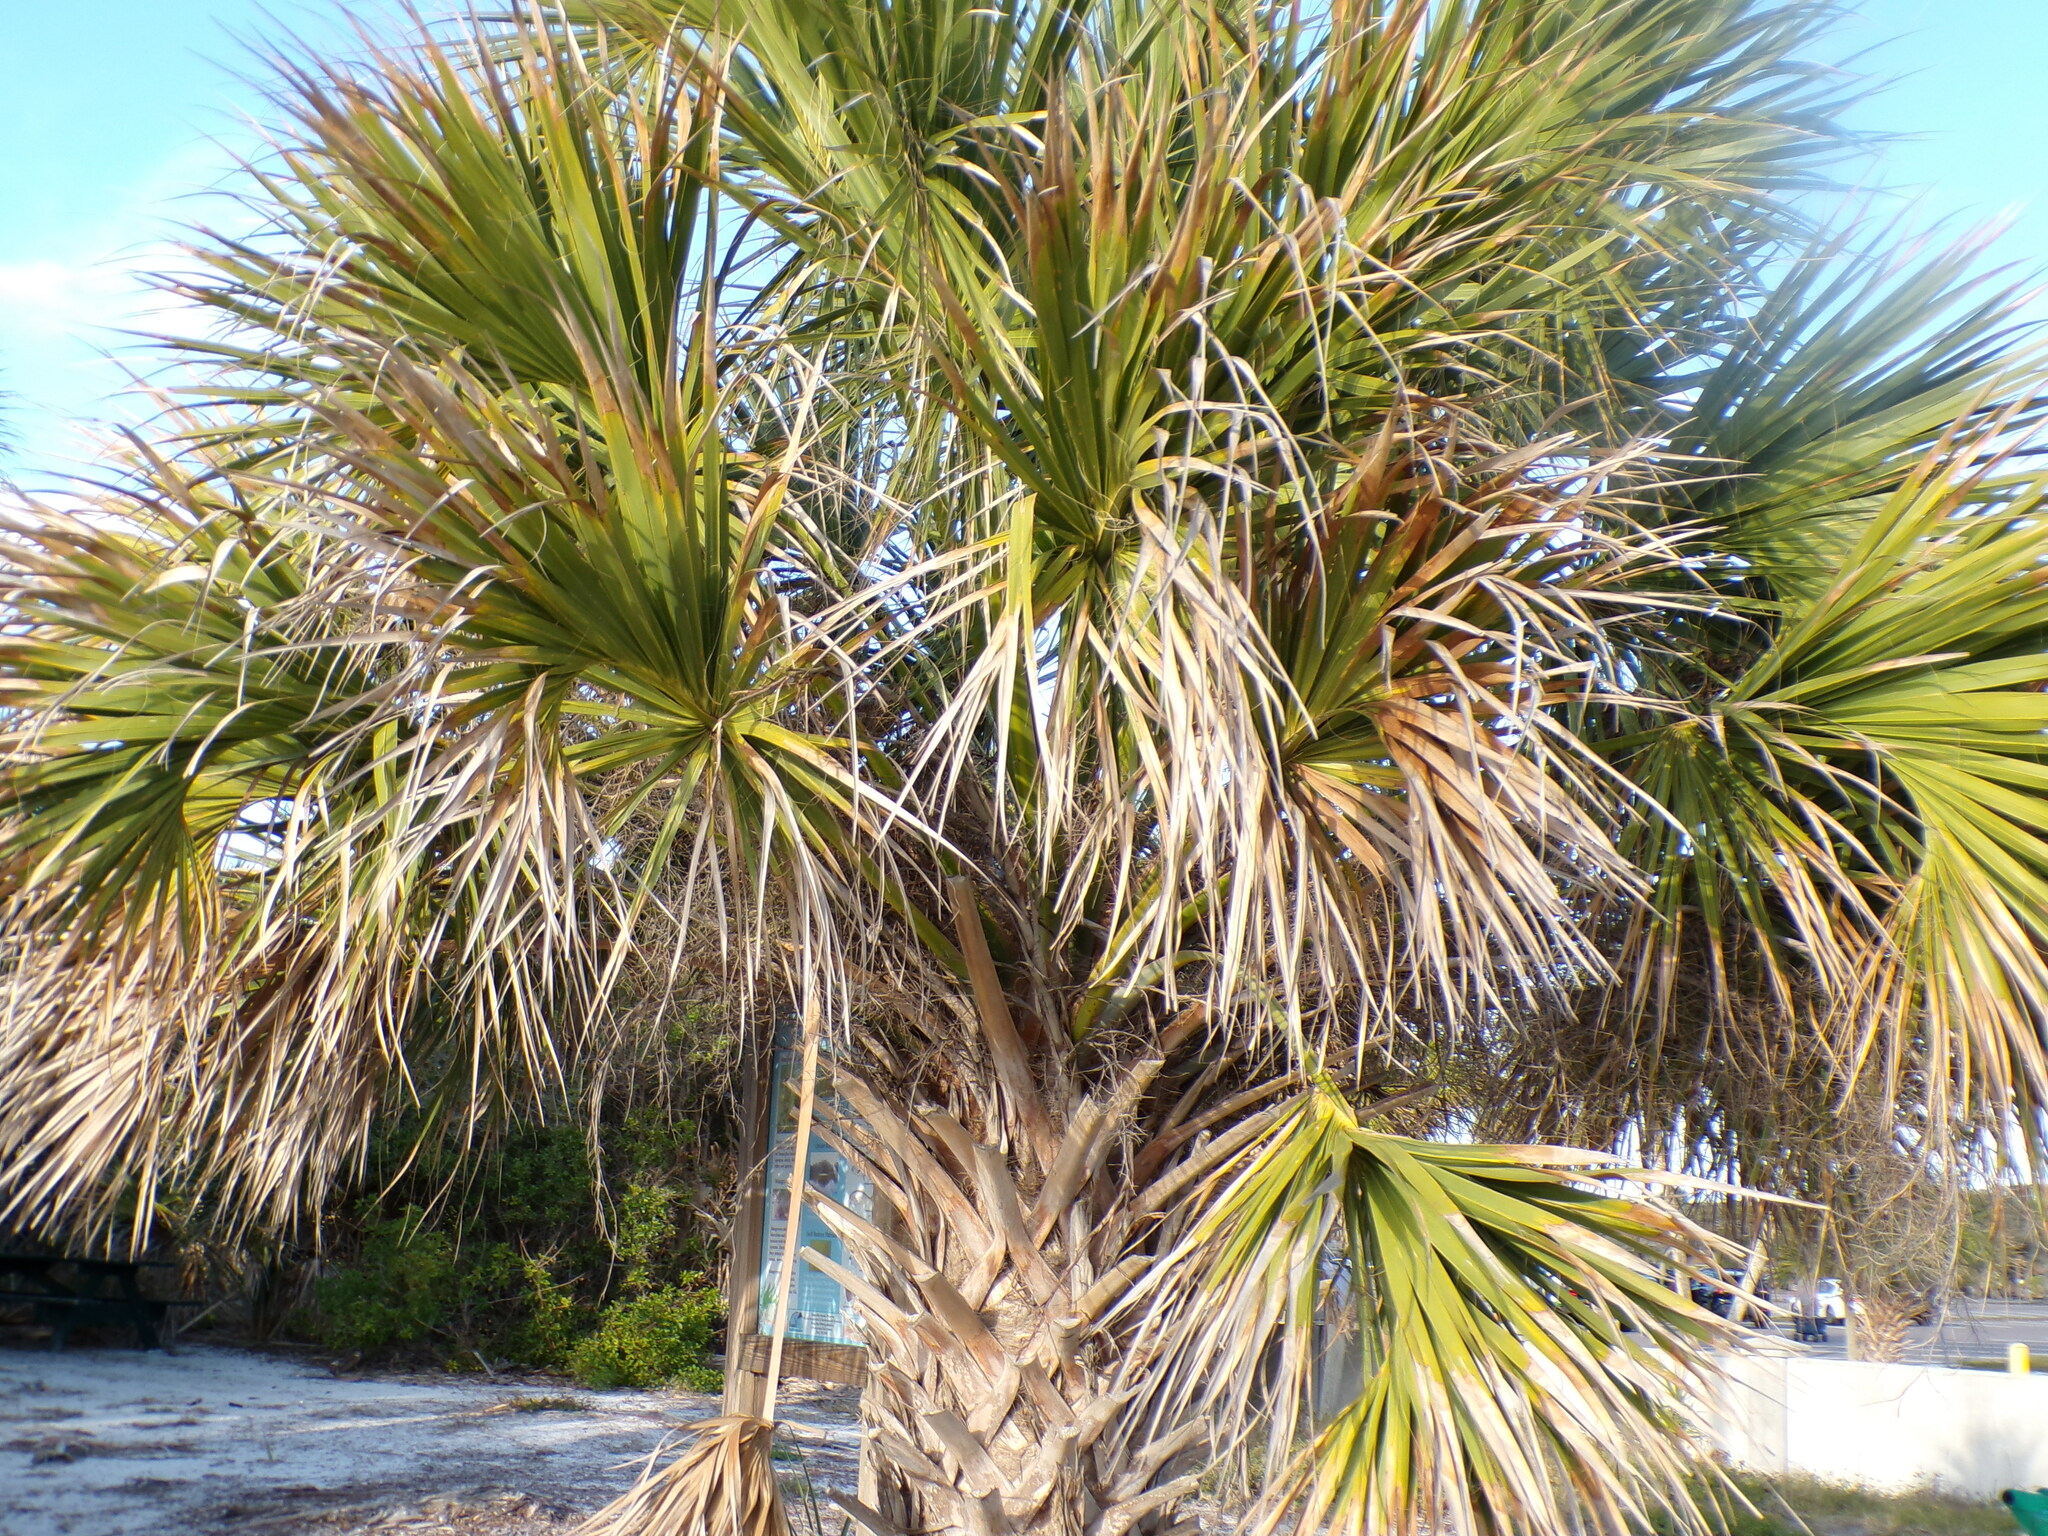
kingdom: Plantae
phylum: Tracheophyta
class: Liliopsida
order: Arecales
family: Arecaceae
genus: Sabal
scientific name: Sabal palmetto
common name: Blue palmetto
